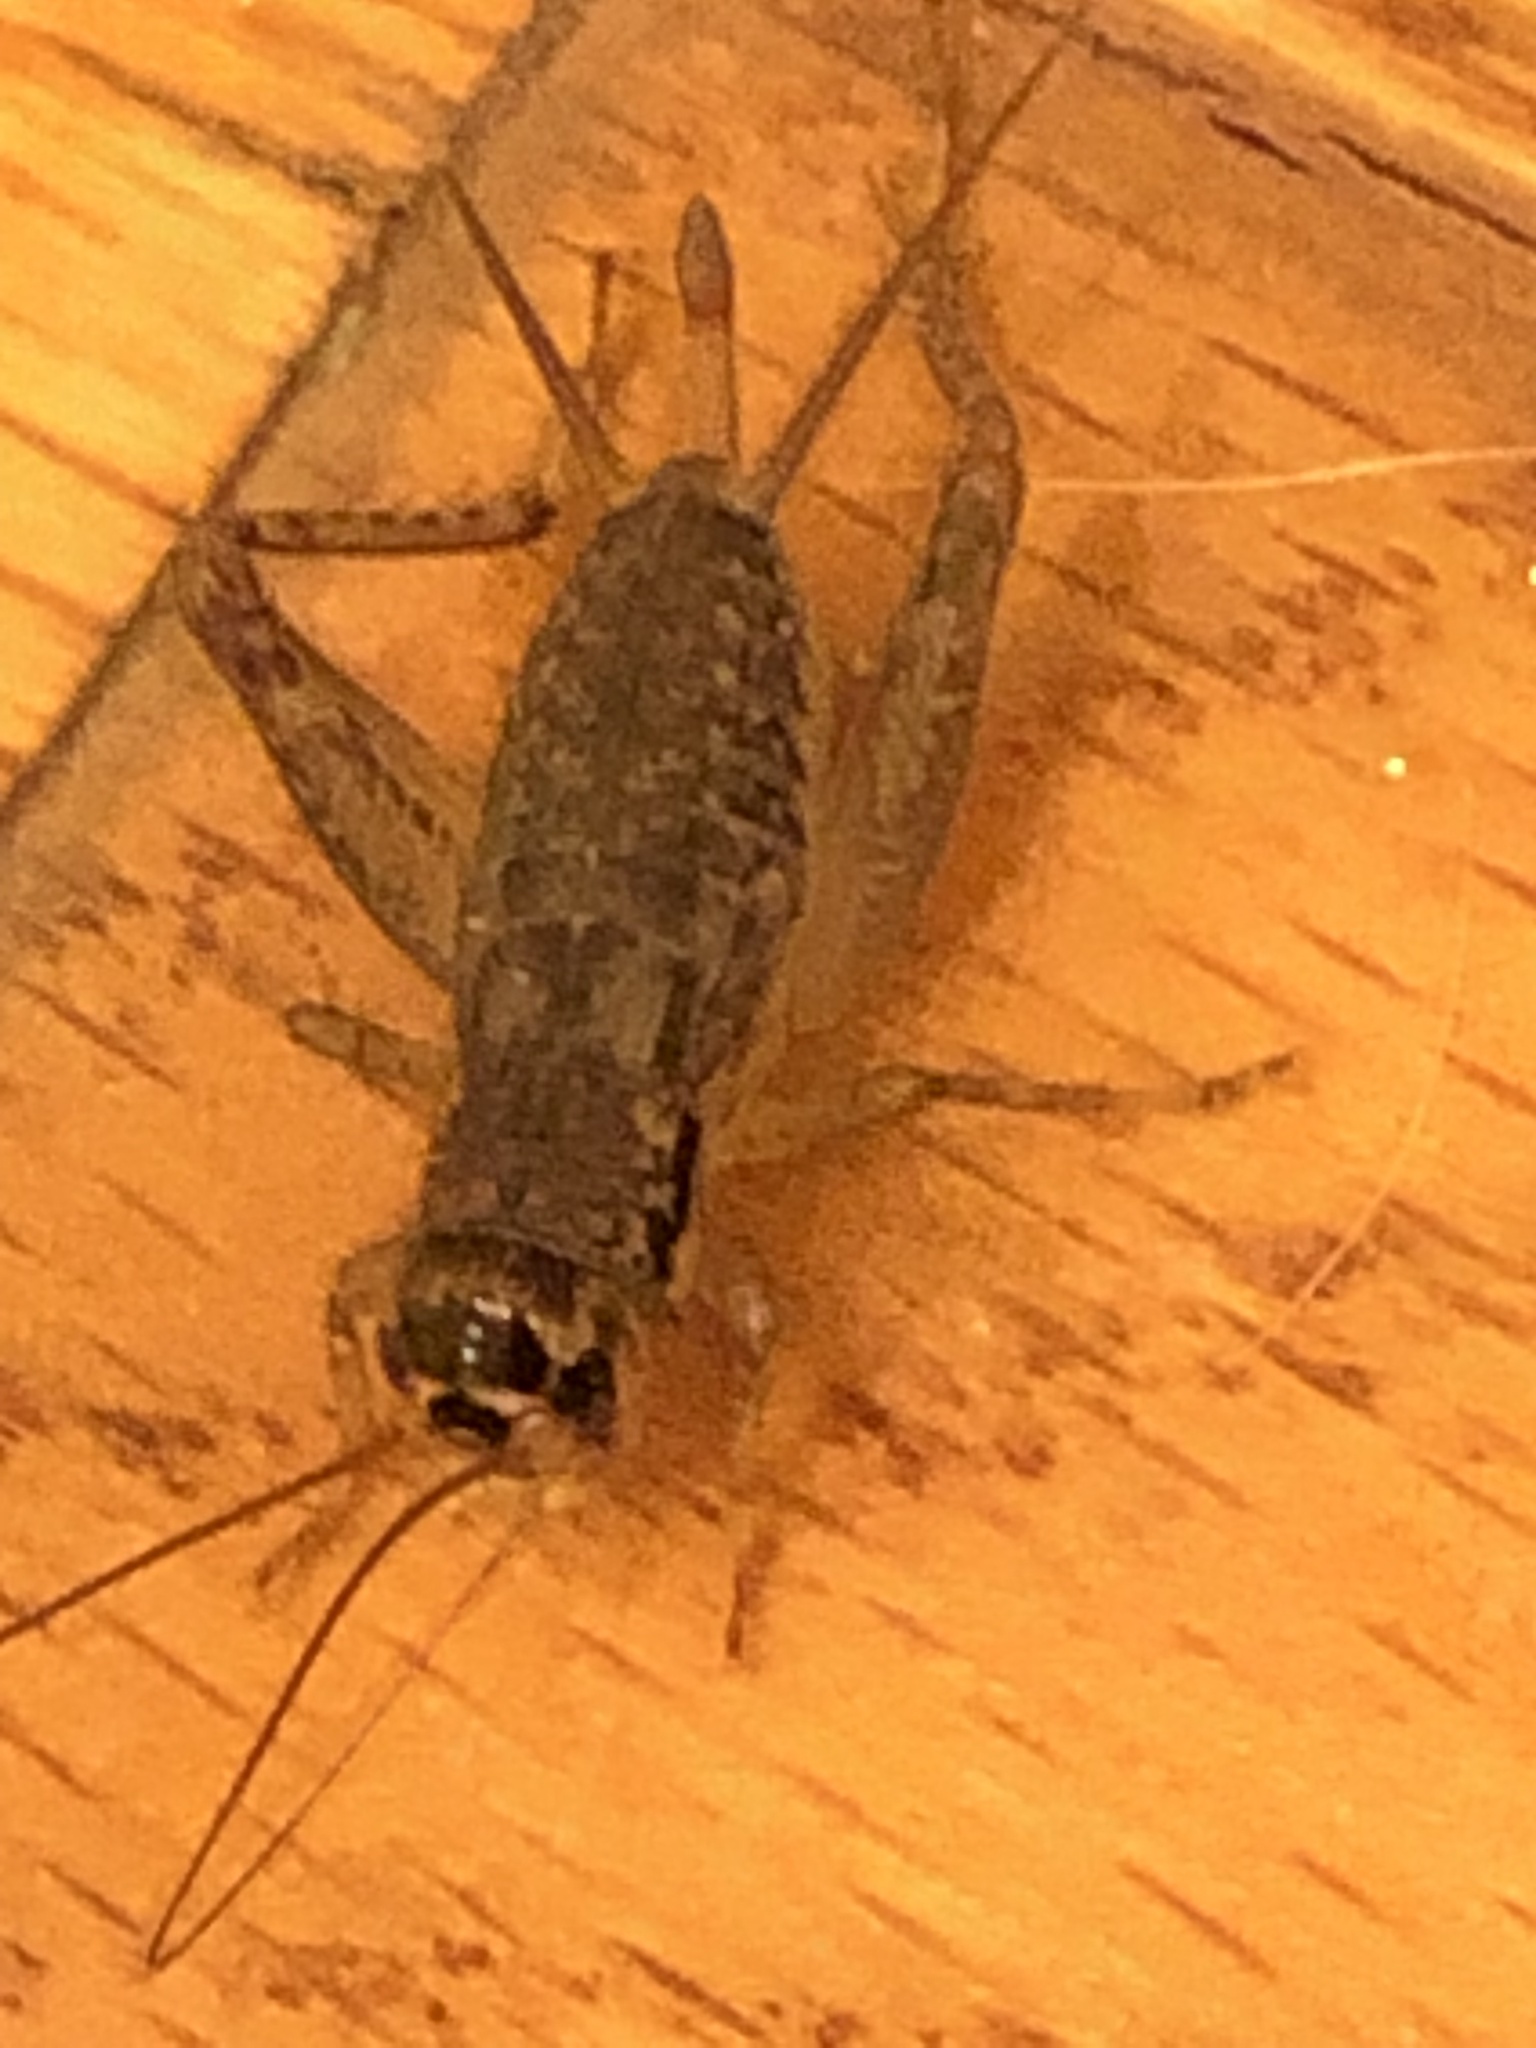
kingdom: Animalia
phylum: Arthropoda
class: Insecta
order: Orthoptera
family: Gryllidae
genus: Velarifictorus
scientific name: Velarifictorus micado
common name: Japanese burrowing cricket
